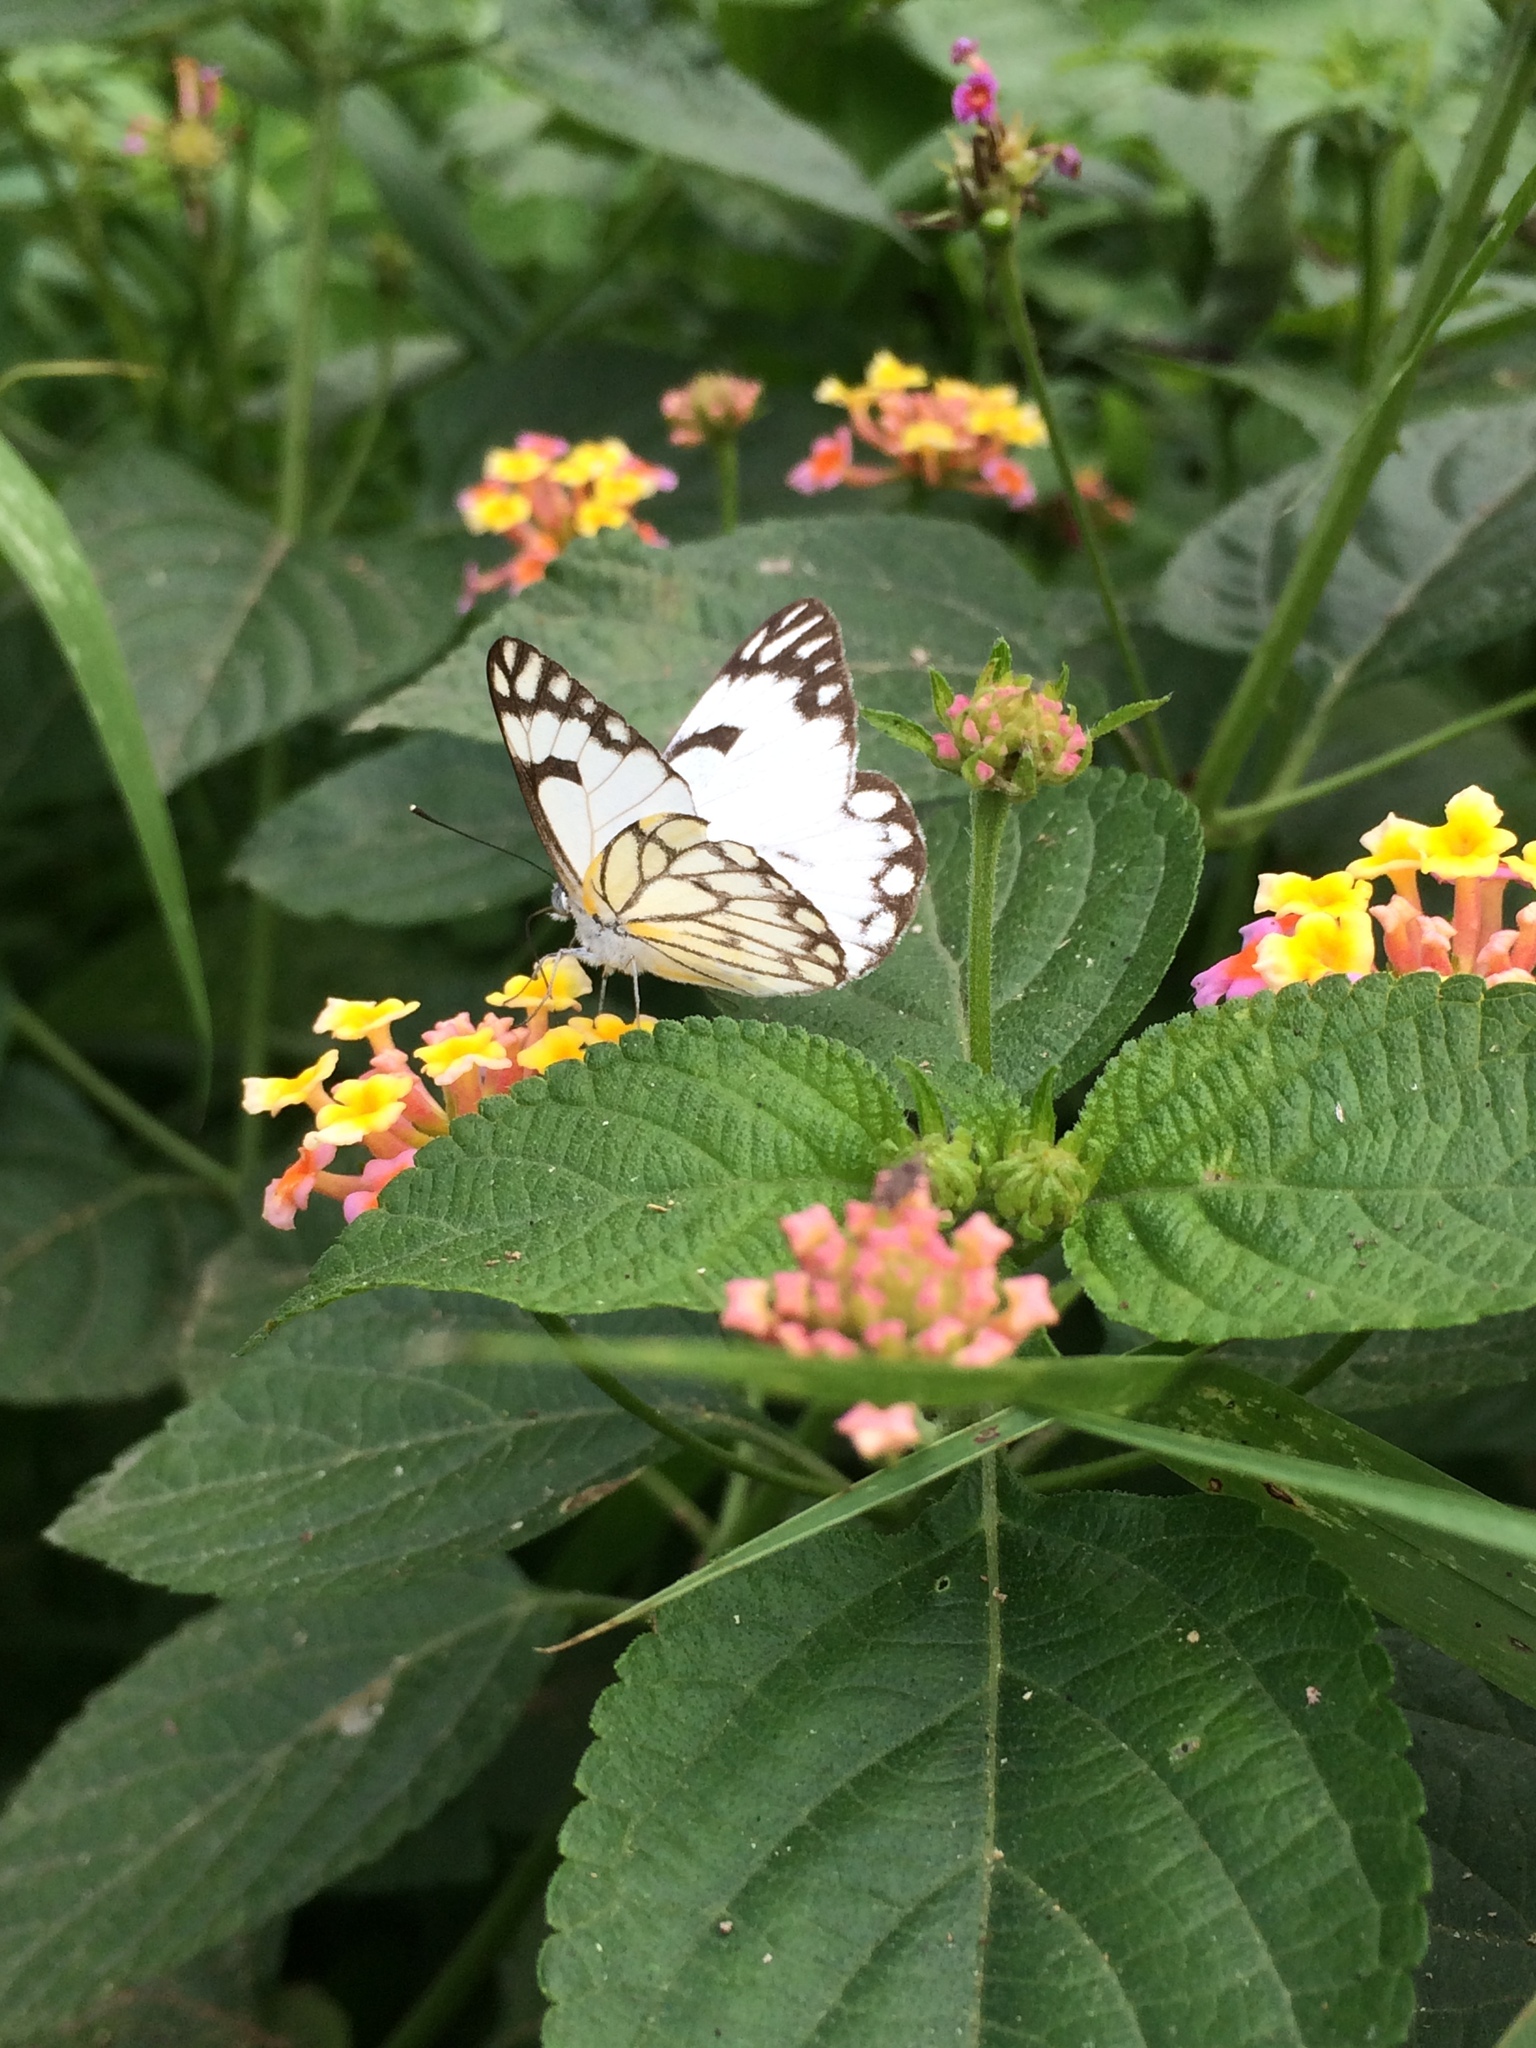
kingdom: Animalia
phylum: Arthropoda
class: Insecta
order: Lepidoptera
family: Pieridae
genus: Belenois
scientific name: Belenois aurota
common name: Brown-veined white
